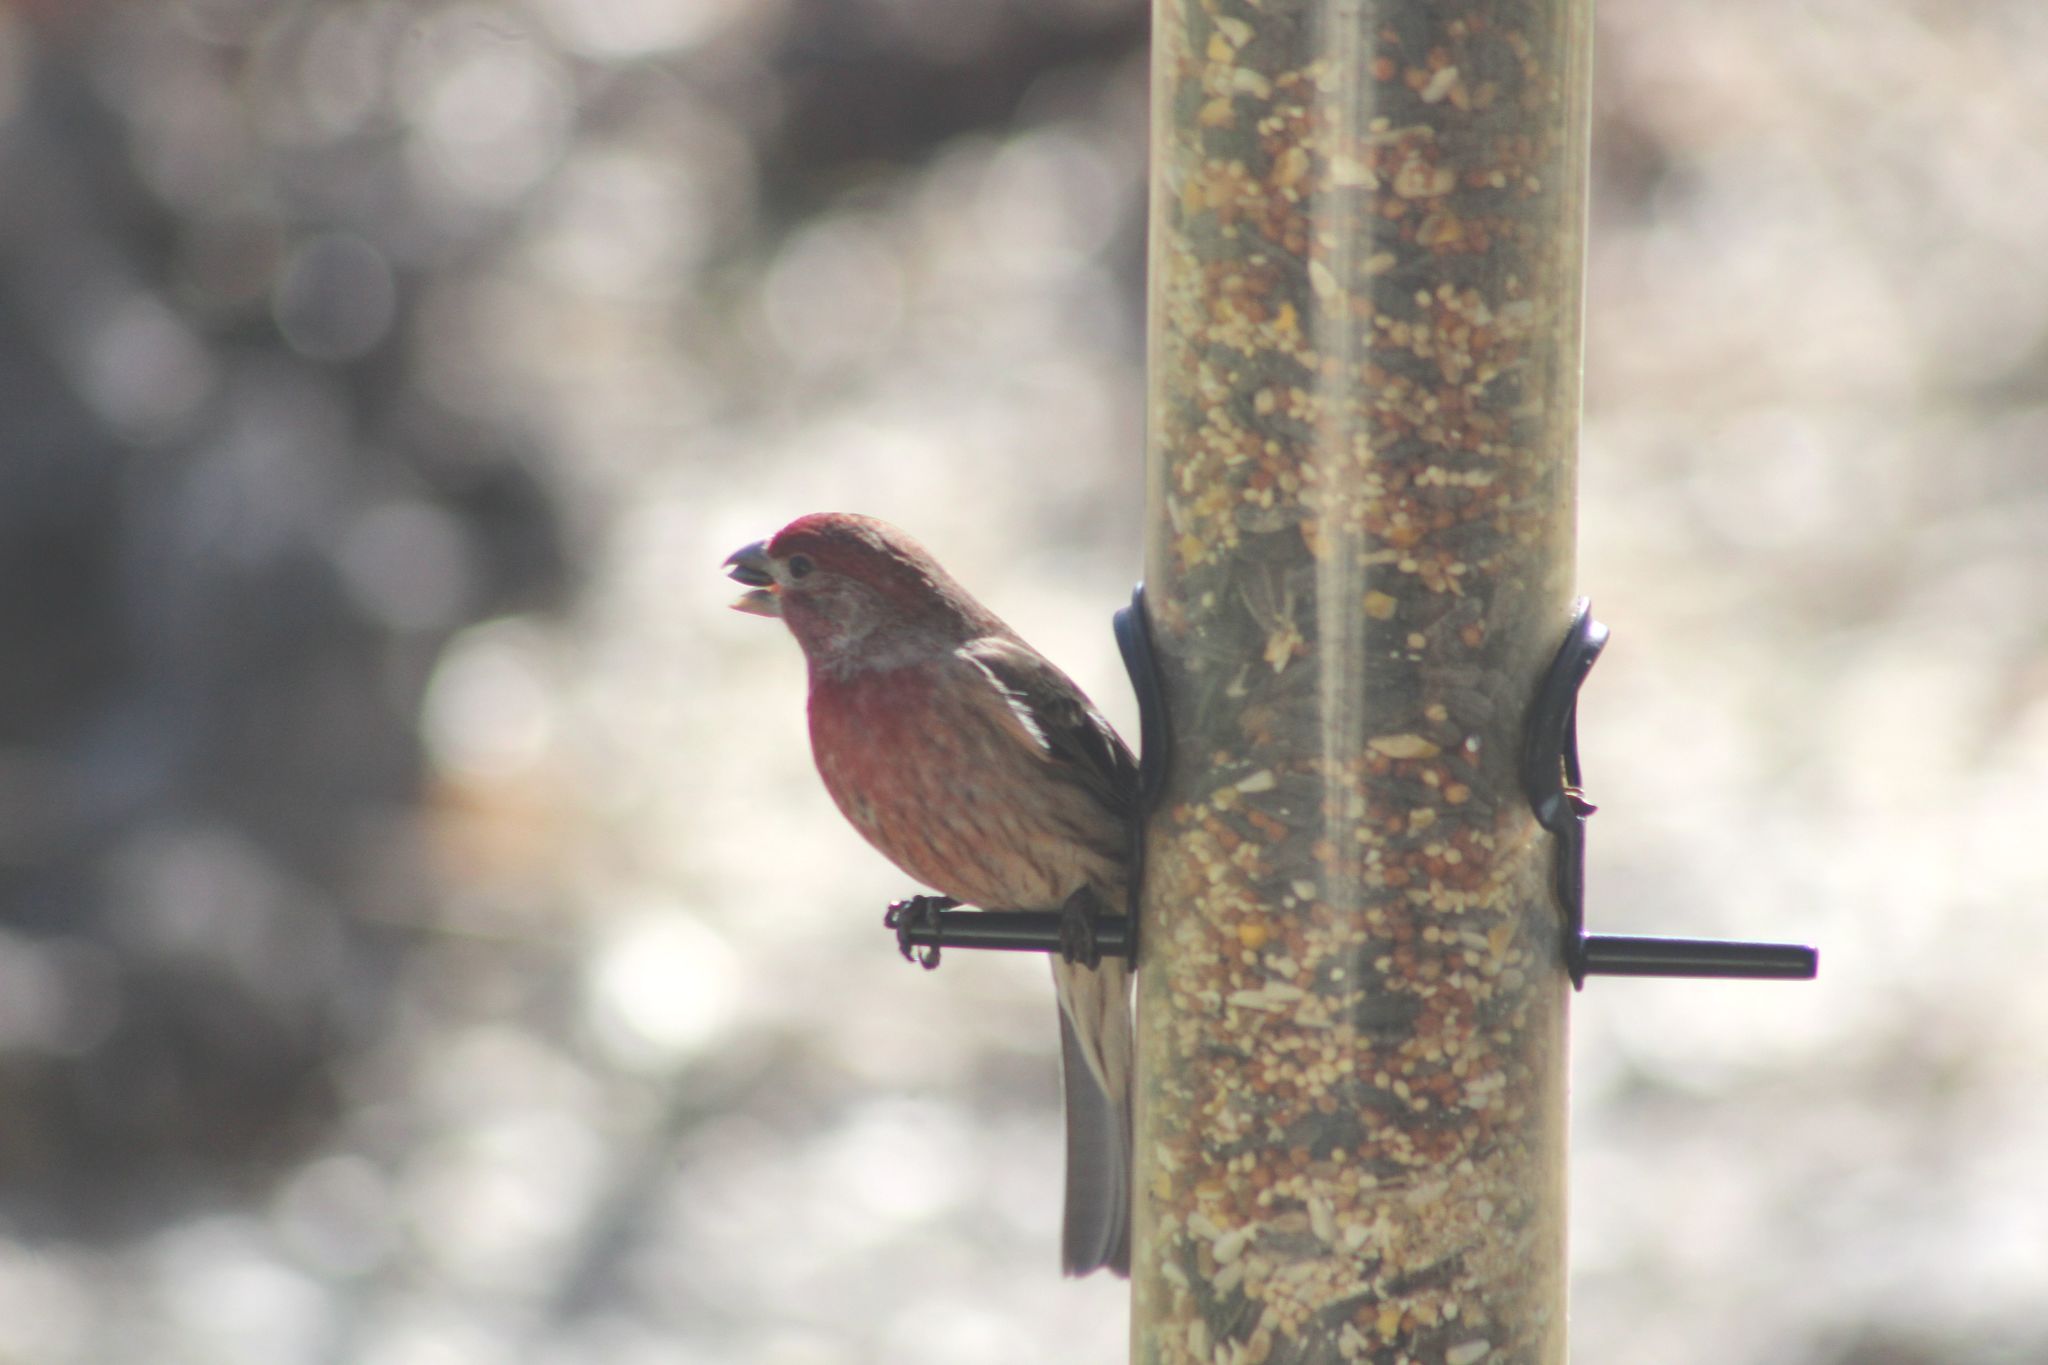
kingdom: Animalia
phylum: Chordata
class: Aves
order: Passeriformes
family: Fringillidae
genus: Haemorhous
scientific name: Haemorhous mexicanus
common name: House finch
